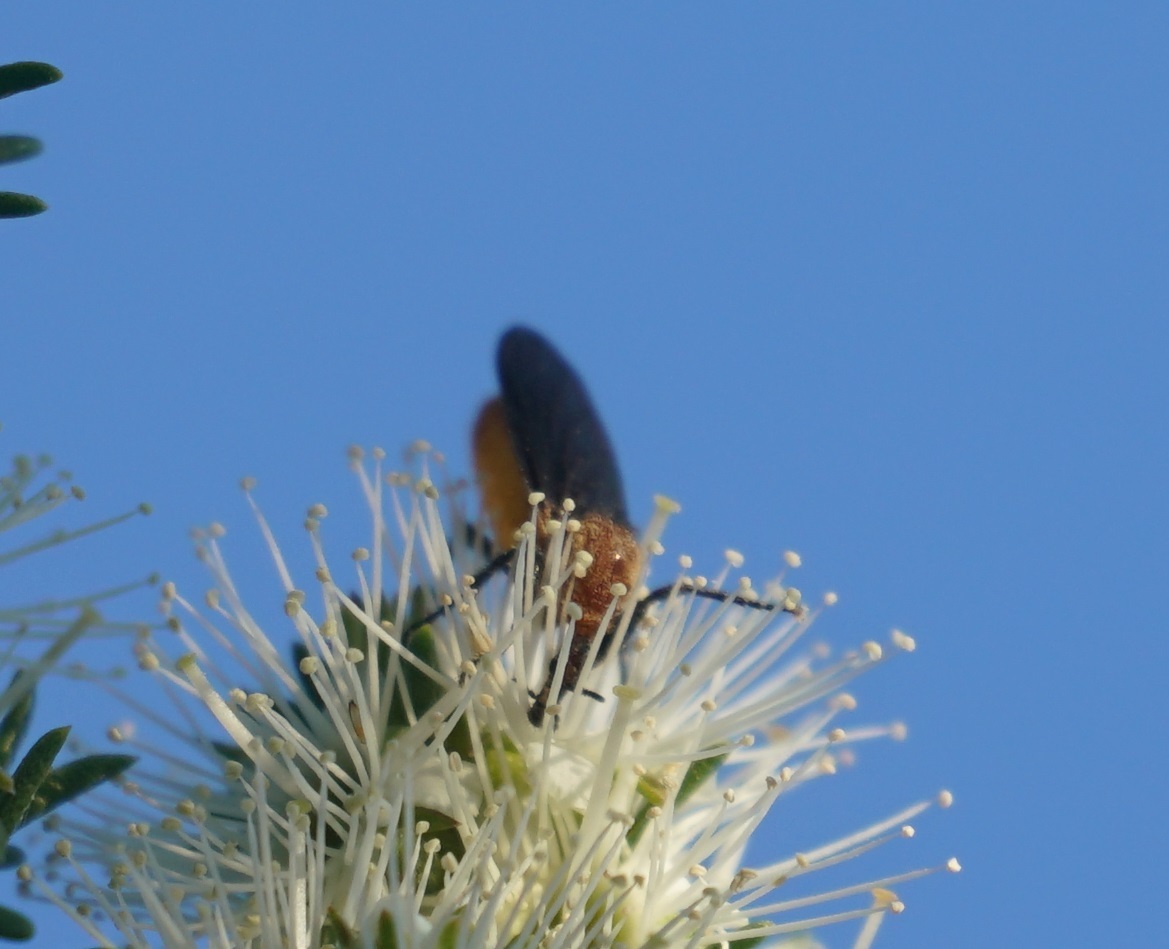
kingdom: Animalia
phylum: Arthropoda
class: Insecta
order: Diptera
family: Bibionidae
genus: Bibio
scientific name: Bibio imitator
